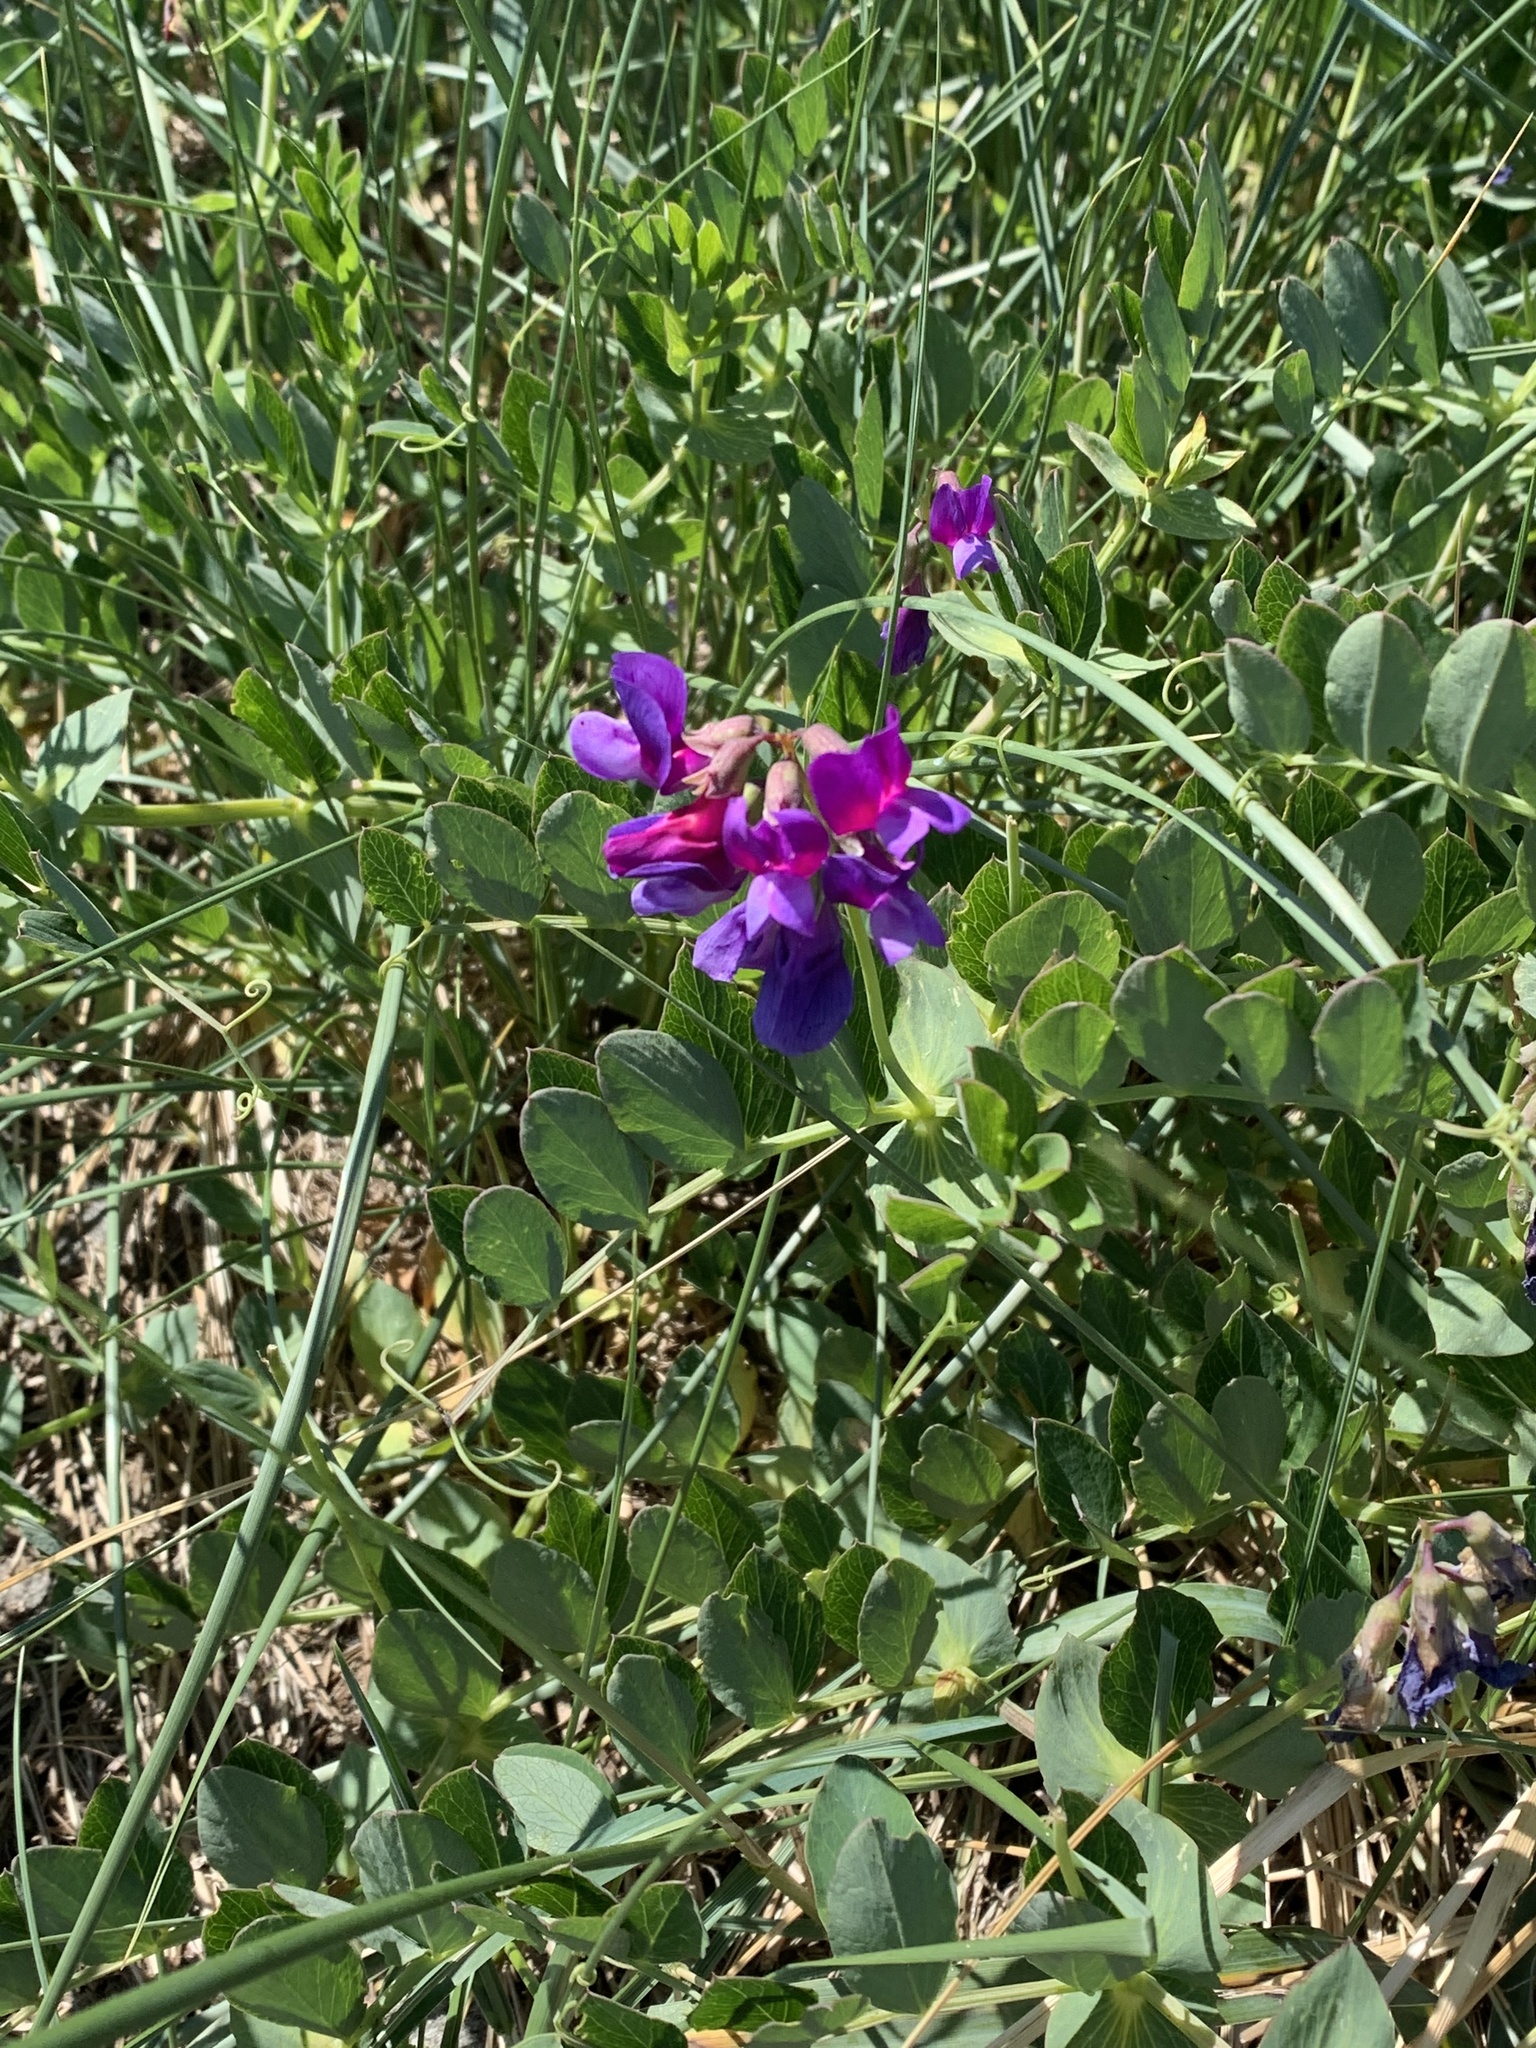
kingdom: Plantae
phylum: Tracheophyta
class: Magnoliopsida
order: Fabales
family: Fabaceae
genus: Lathyrus
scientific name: Lathyrus japonicus
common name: Sea pea
